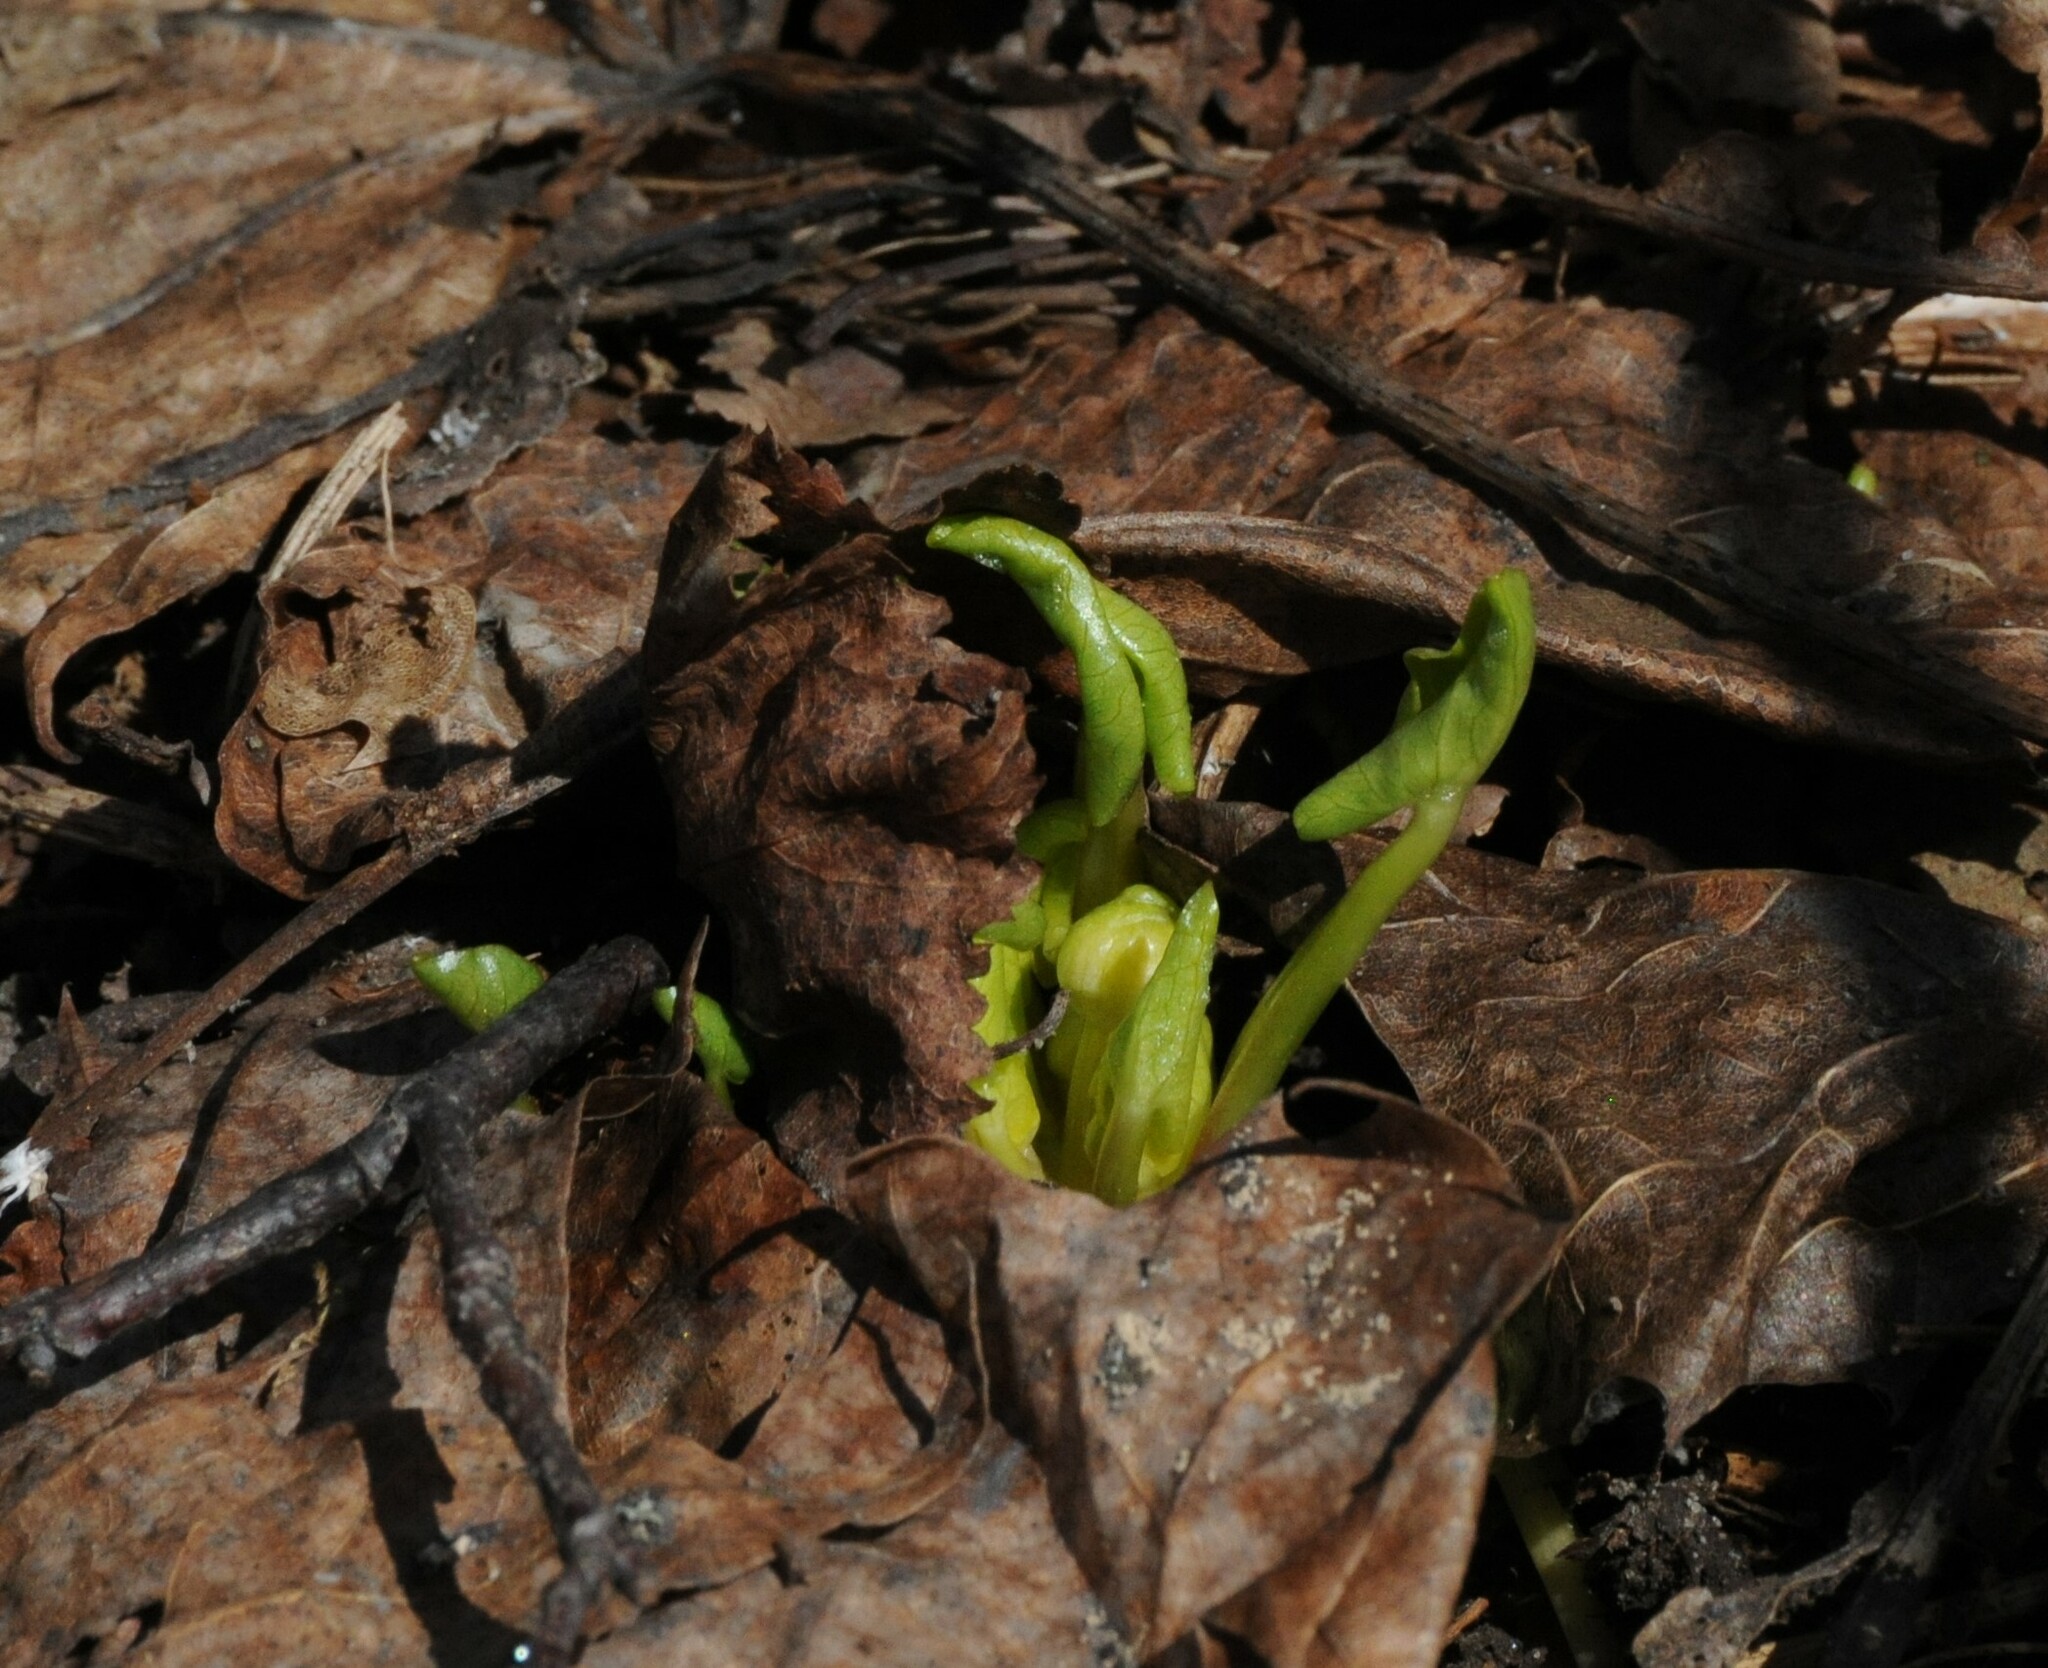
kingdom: Plantae
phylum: Tracheophyta
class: Magnoliopsida
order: Ranunculales
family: Ranunculaceae
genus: Ficaria
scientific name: Ficaria verna
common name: Lesser celandine
